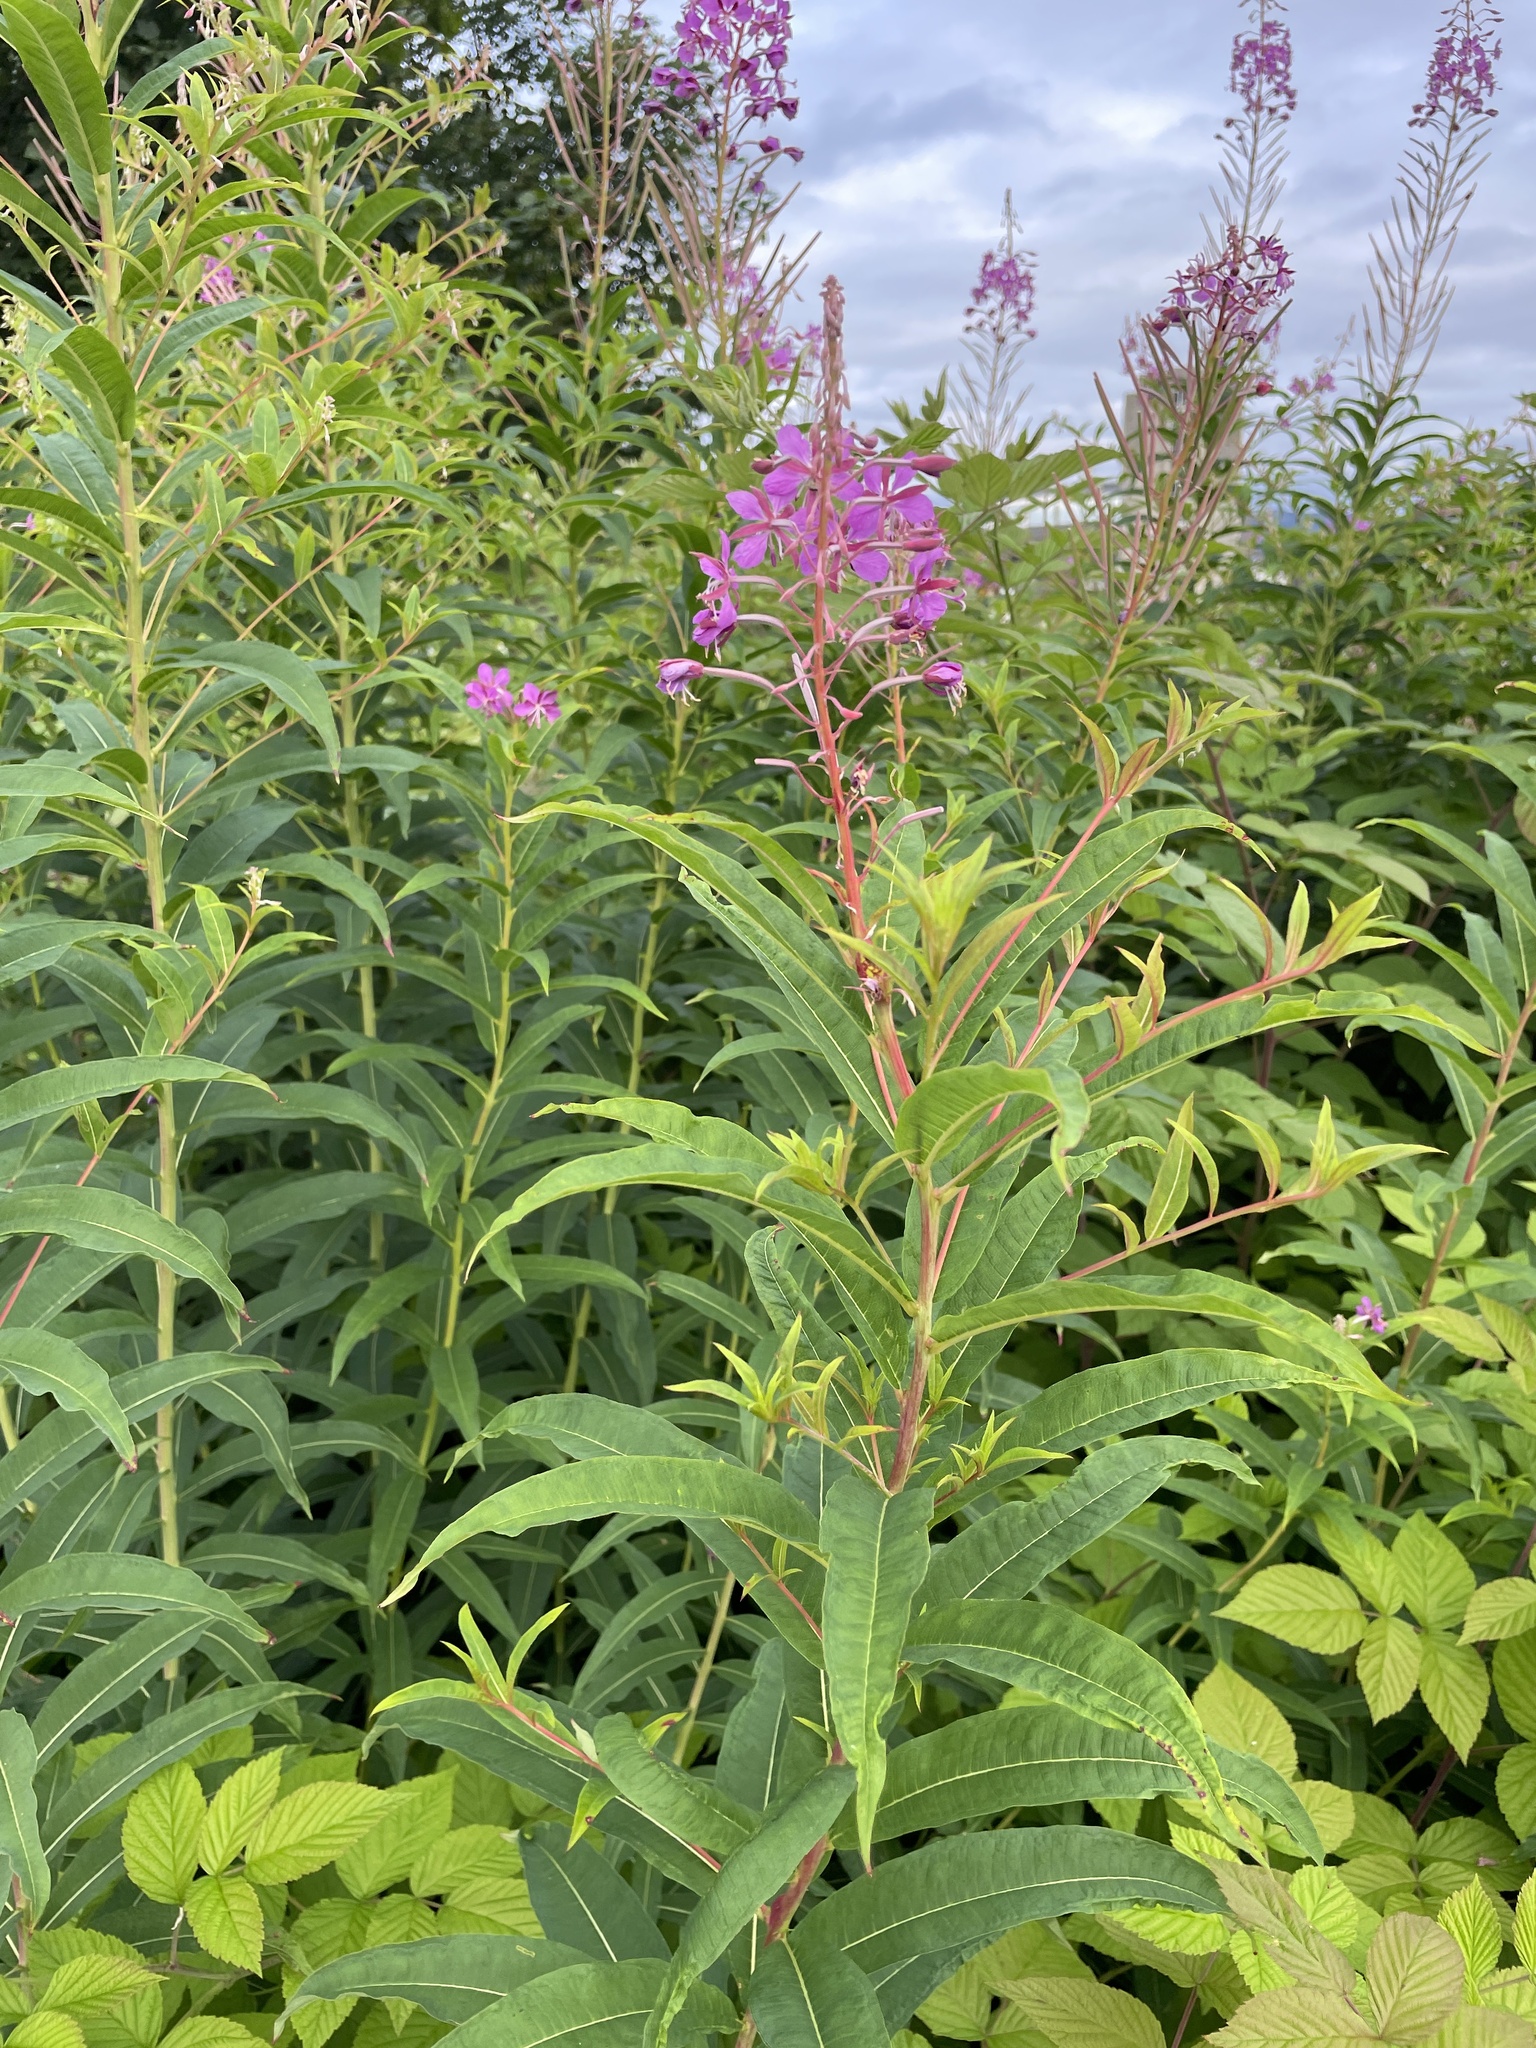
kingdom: Plantae
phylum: Tracheophyta
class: Magnoliopsida
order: Myrtales
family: Onagraceae
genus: Chamaenerion
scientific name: Chamaenerion angustifolium
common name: Fireweed
